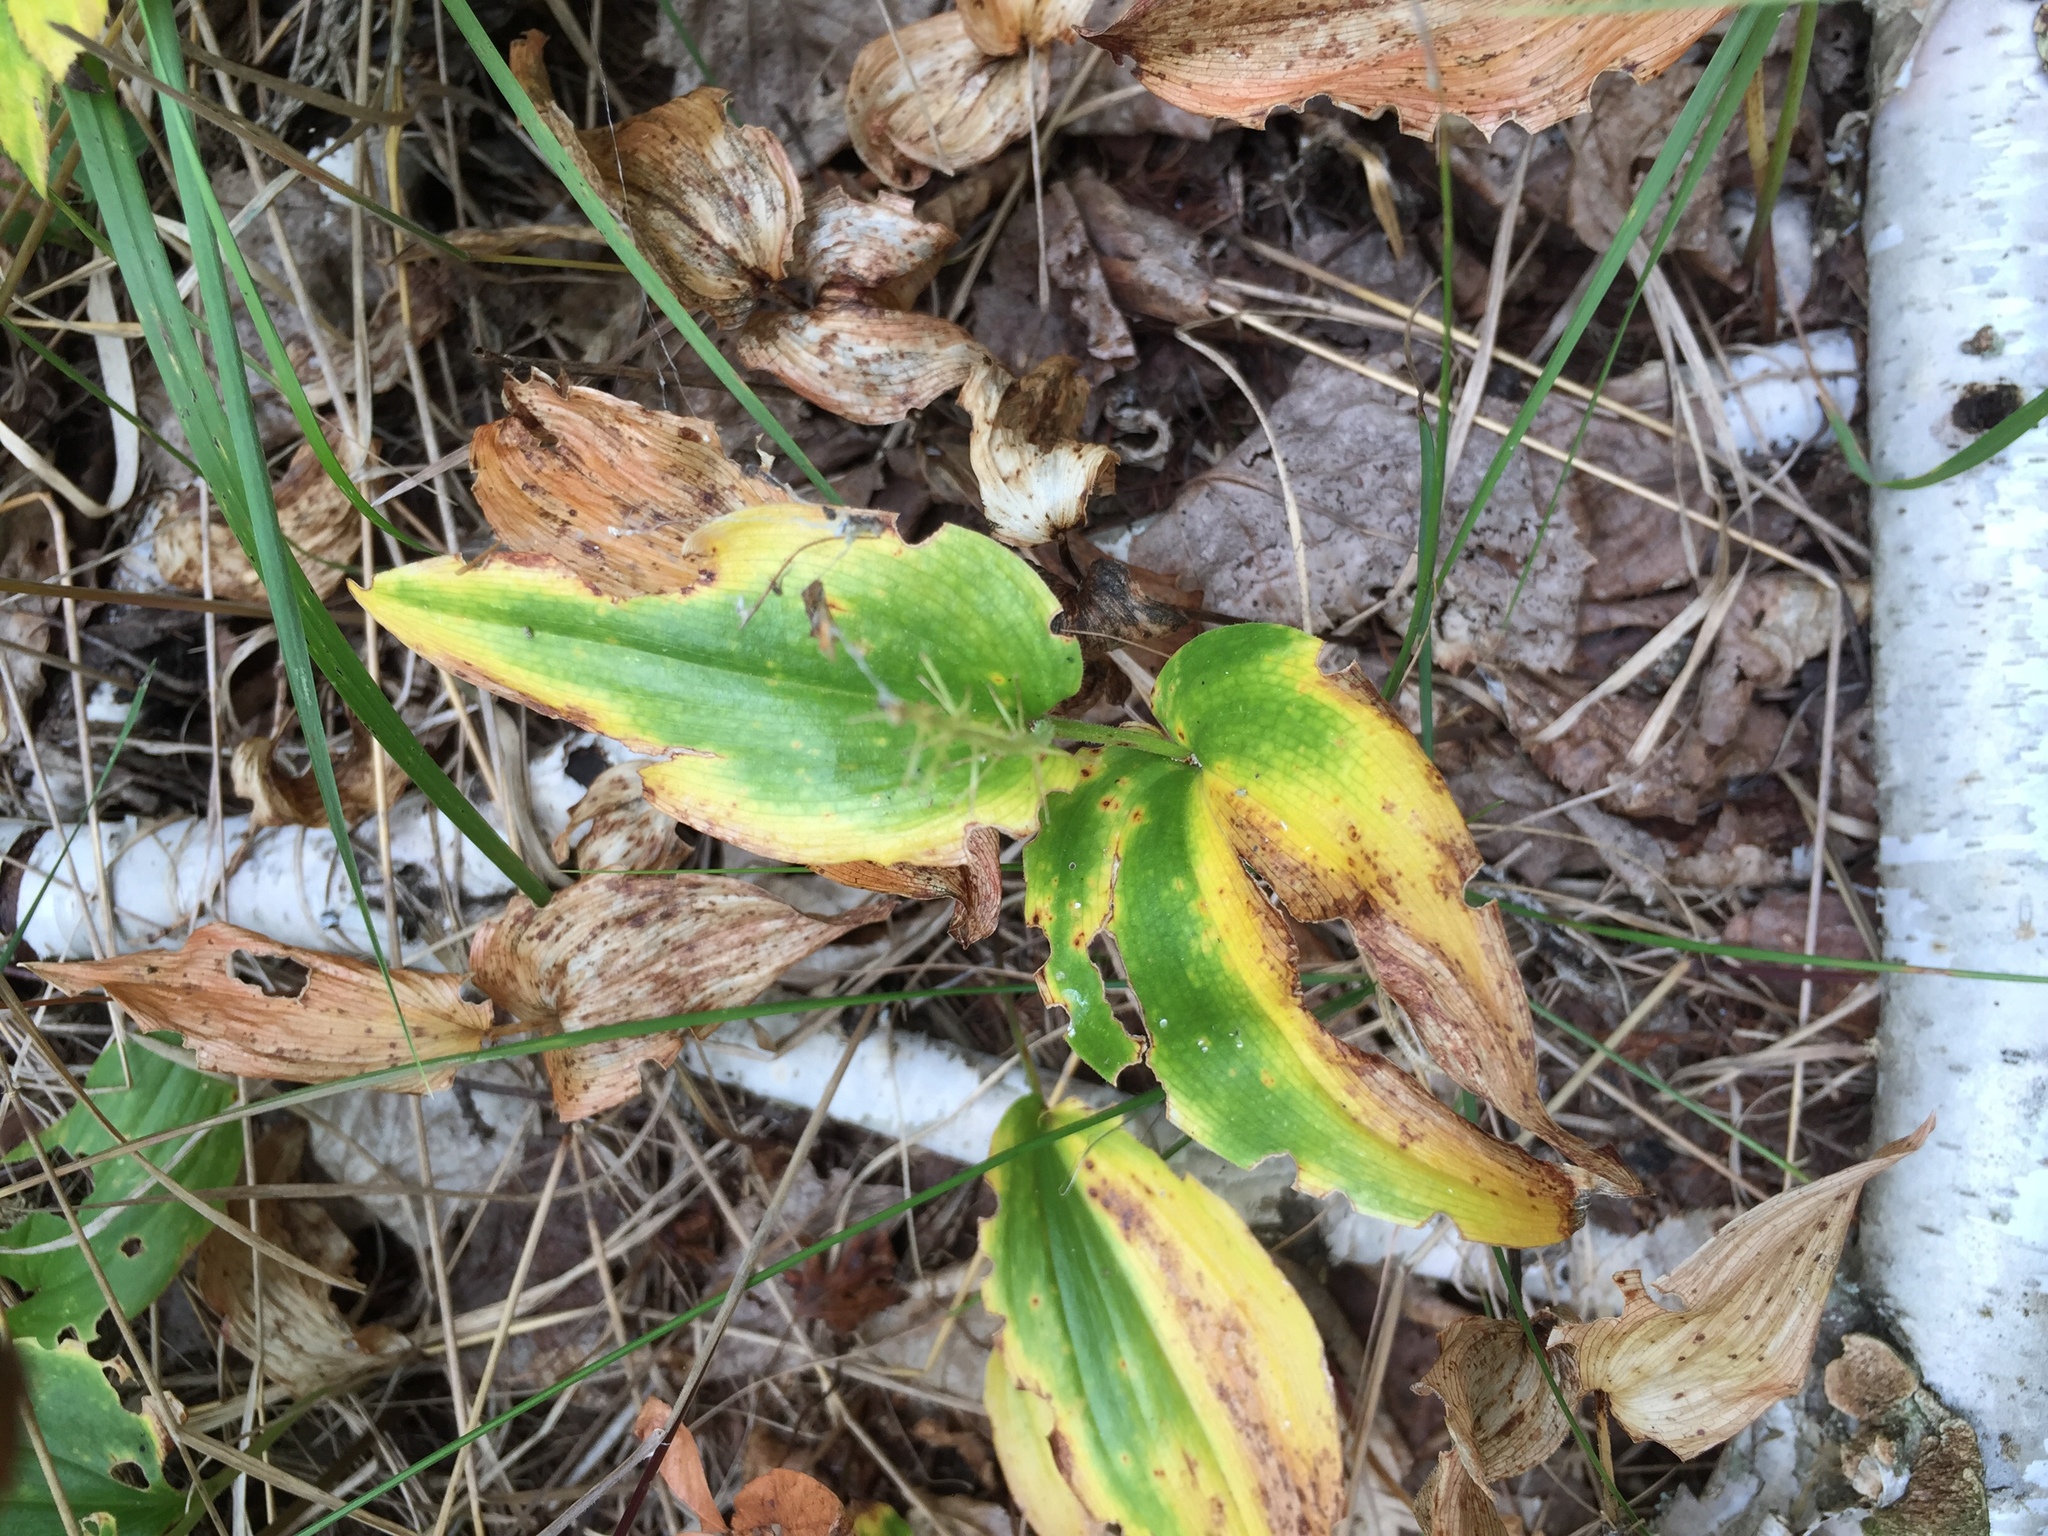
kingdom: Plantae
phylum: Tracheophyta
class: Liliopsida
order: Asparagales
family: Asparagaceae
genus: Maianthemum
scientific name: Maianthemum canadense
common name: False lily-of-the-valley
